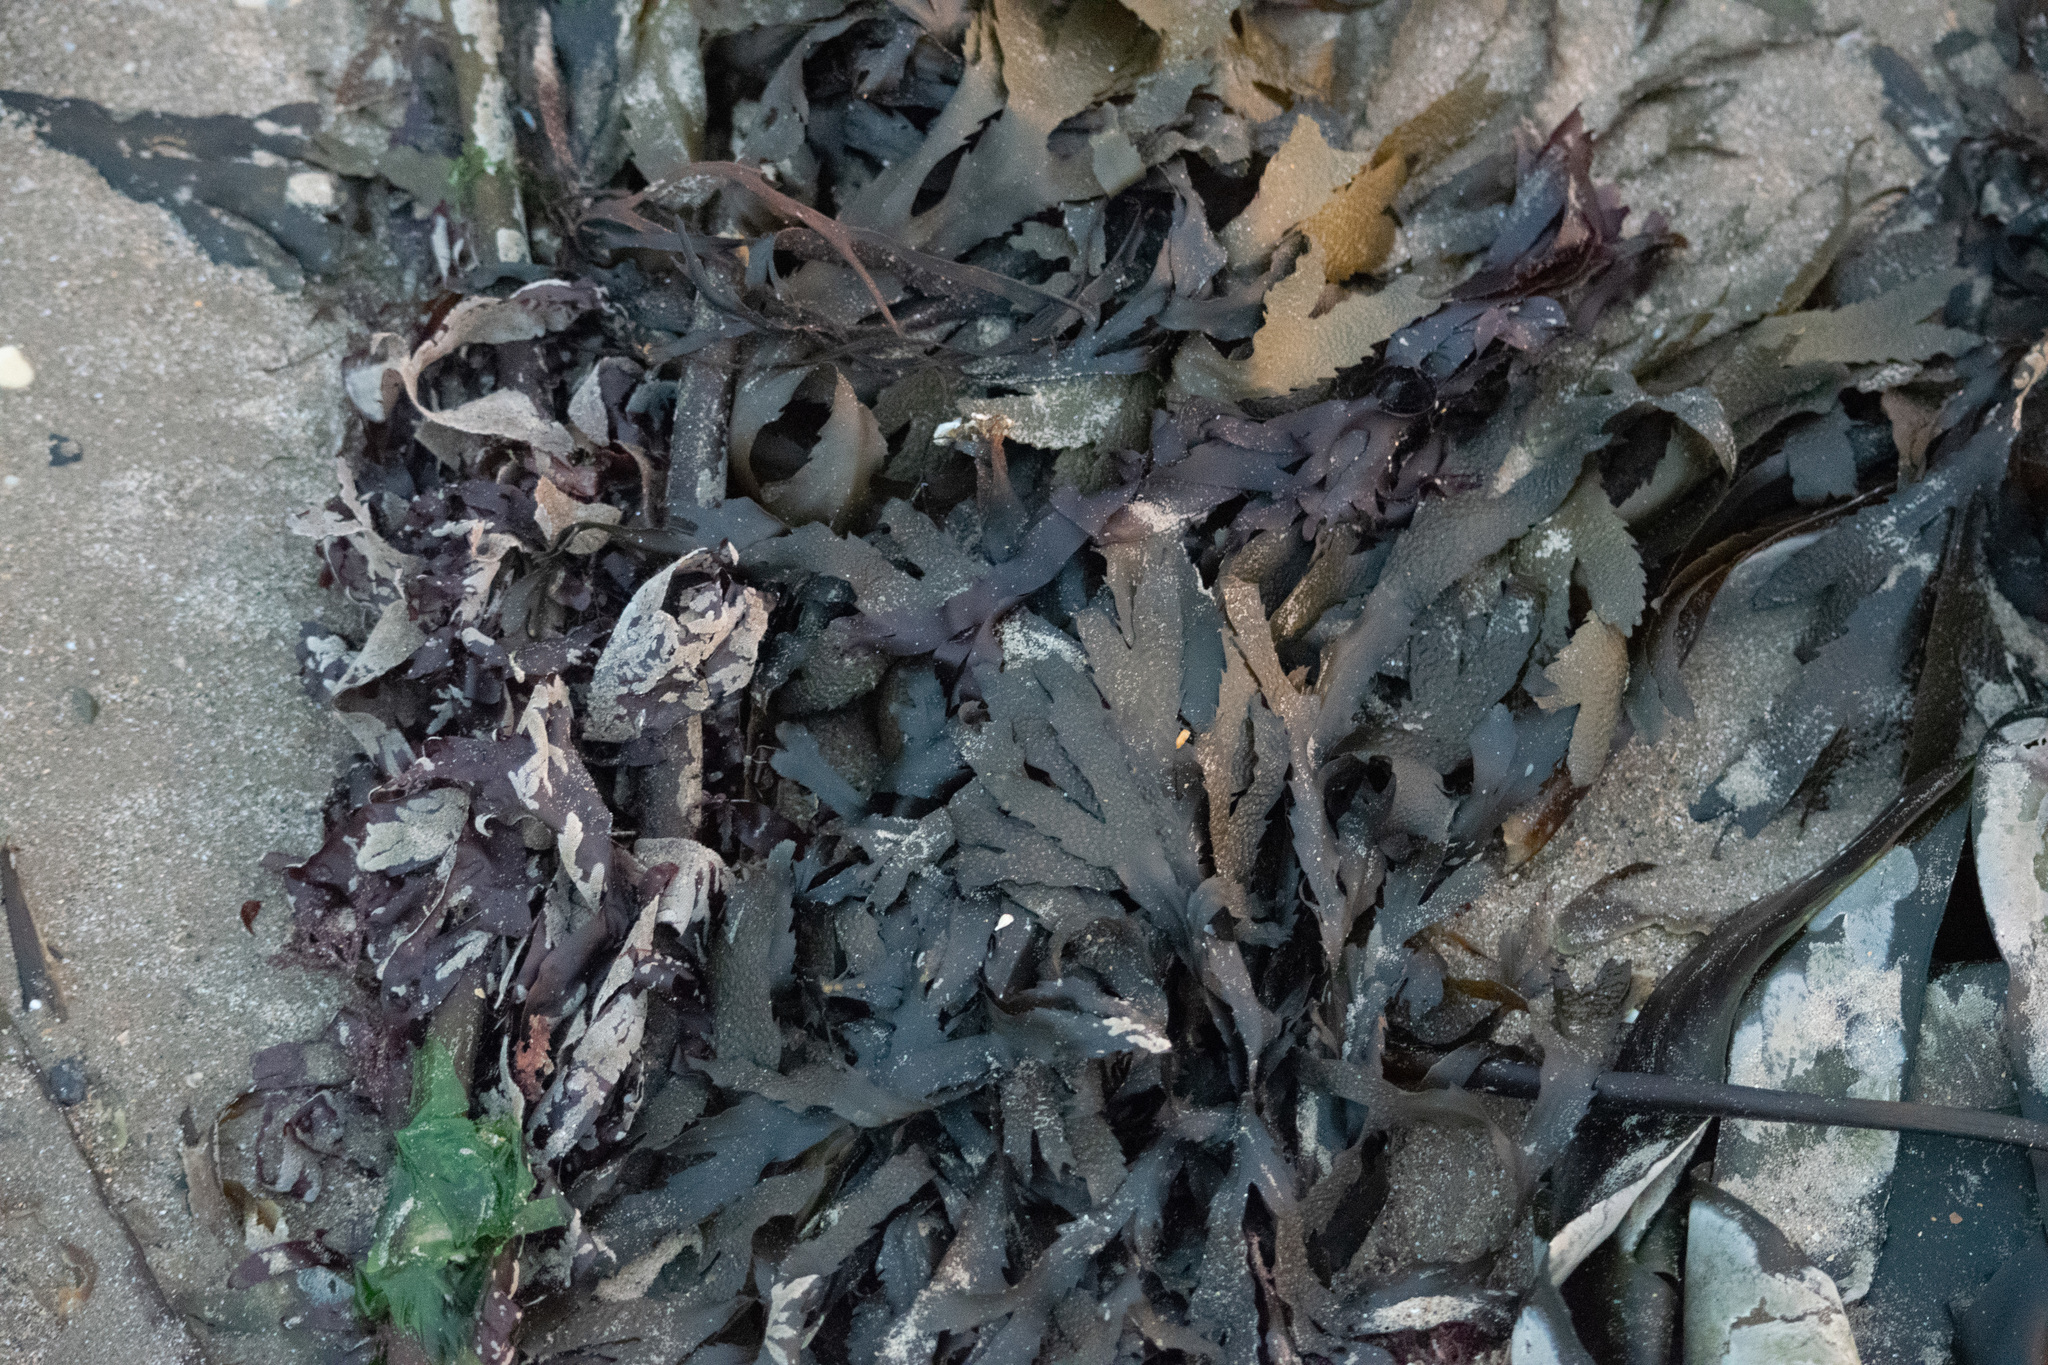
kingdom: Chromista
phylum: Ochrophyta
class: Phaeophyceae
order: Fucales
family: Fucaceae
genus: Fucus
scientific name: Fucus serratus
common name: Toothed wrack
